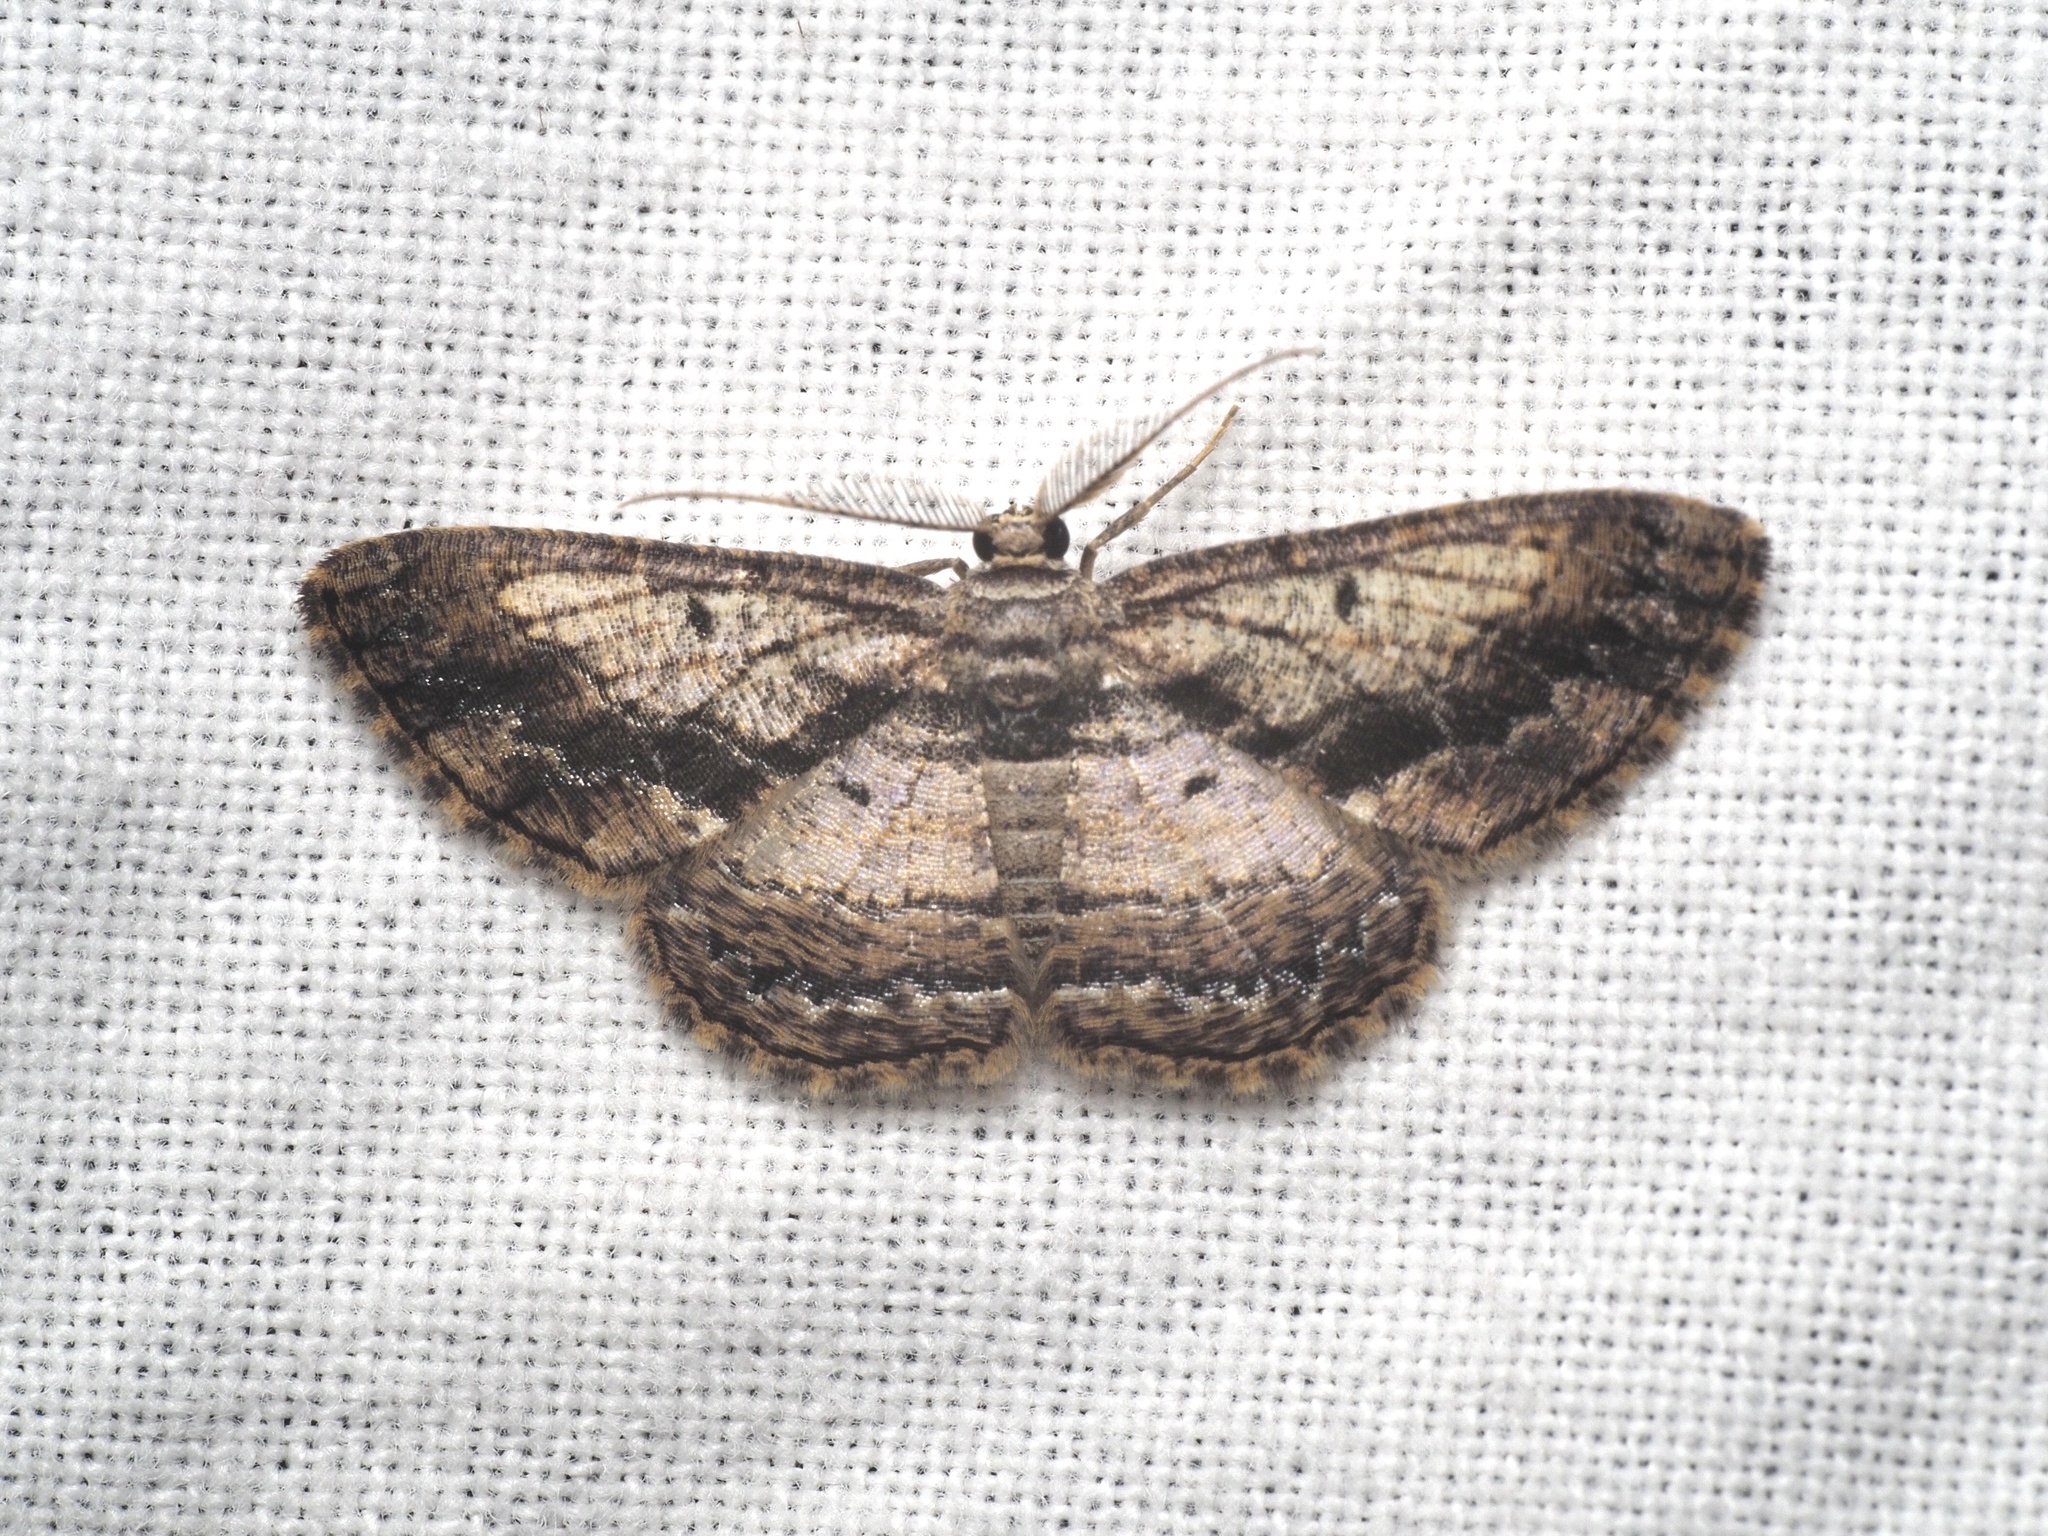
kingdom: Animalia
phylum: Arthropoda
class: Insecta
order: Lepidoptera
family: Geometridae
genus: Zamarada
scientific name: Zamarada ascaphes
